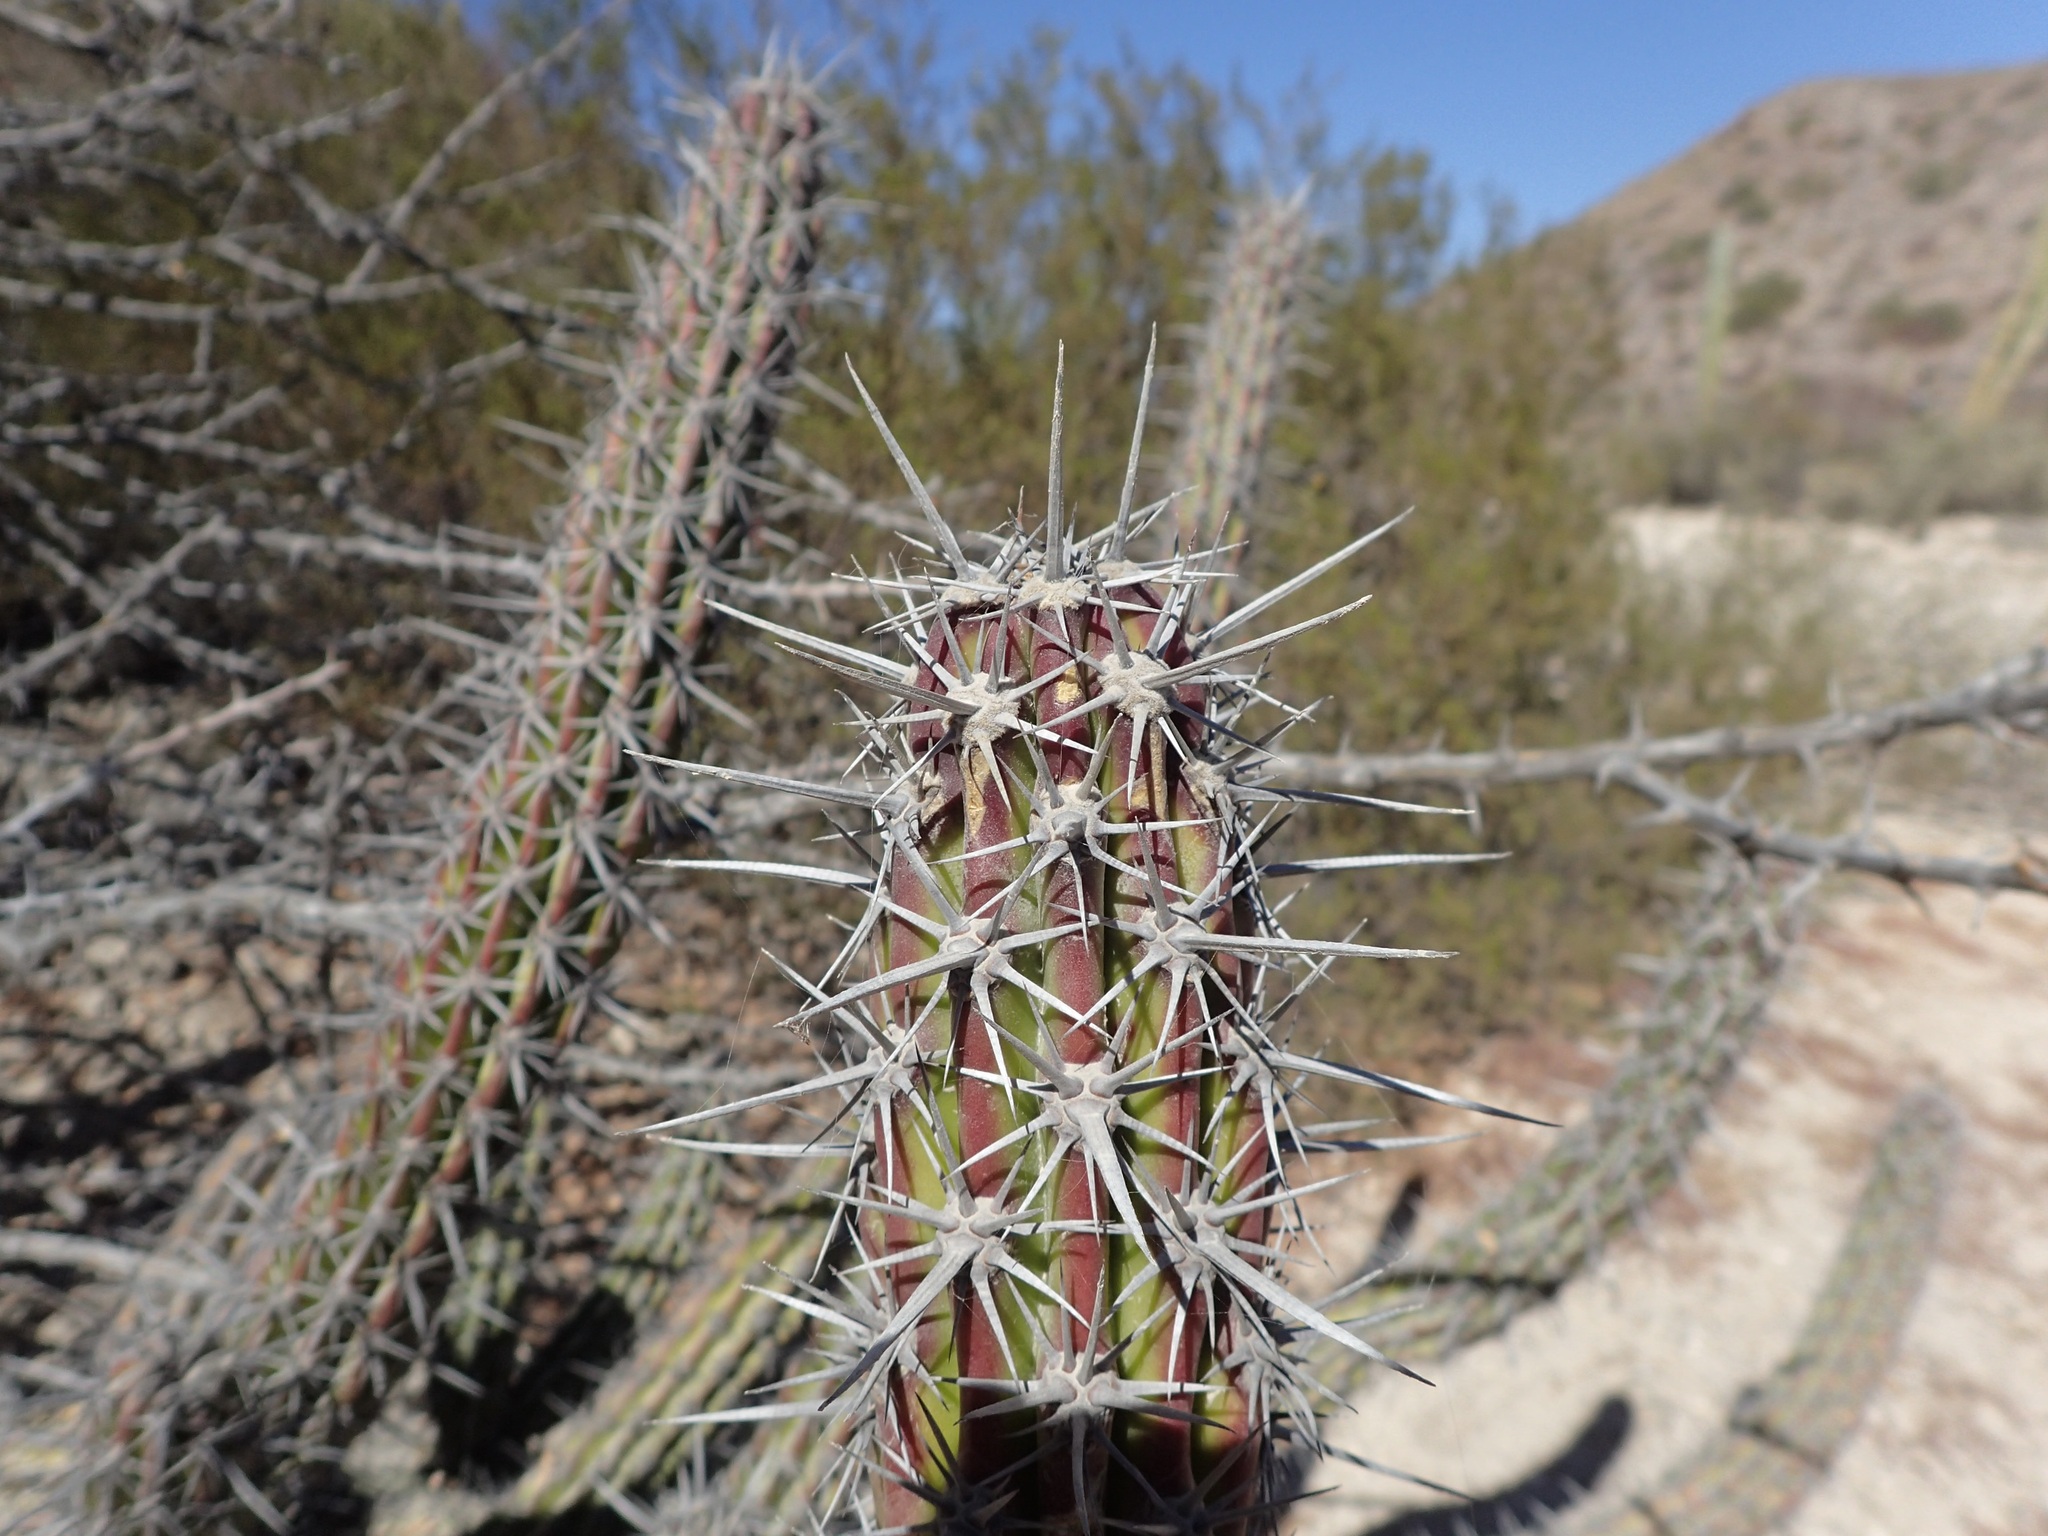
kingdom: Plantae
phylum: Tracheophyta
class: Magnoliopsida
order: Caryophyllales
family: Cactaceae
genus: Stenocereus
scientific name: Stenocereus gummosus
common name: Dagger cactus
